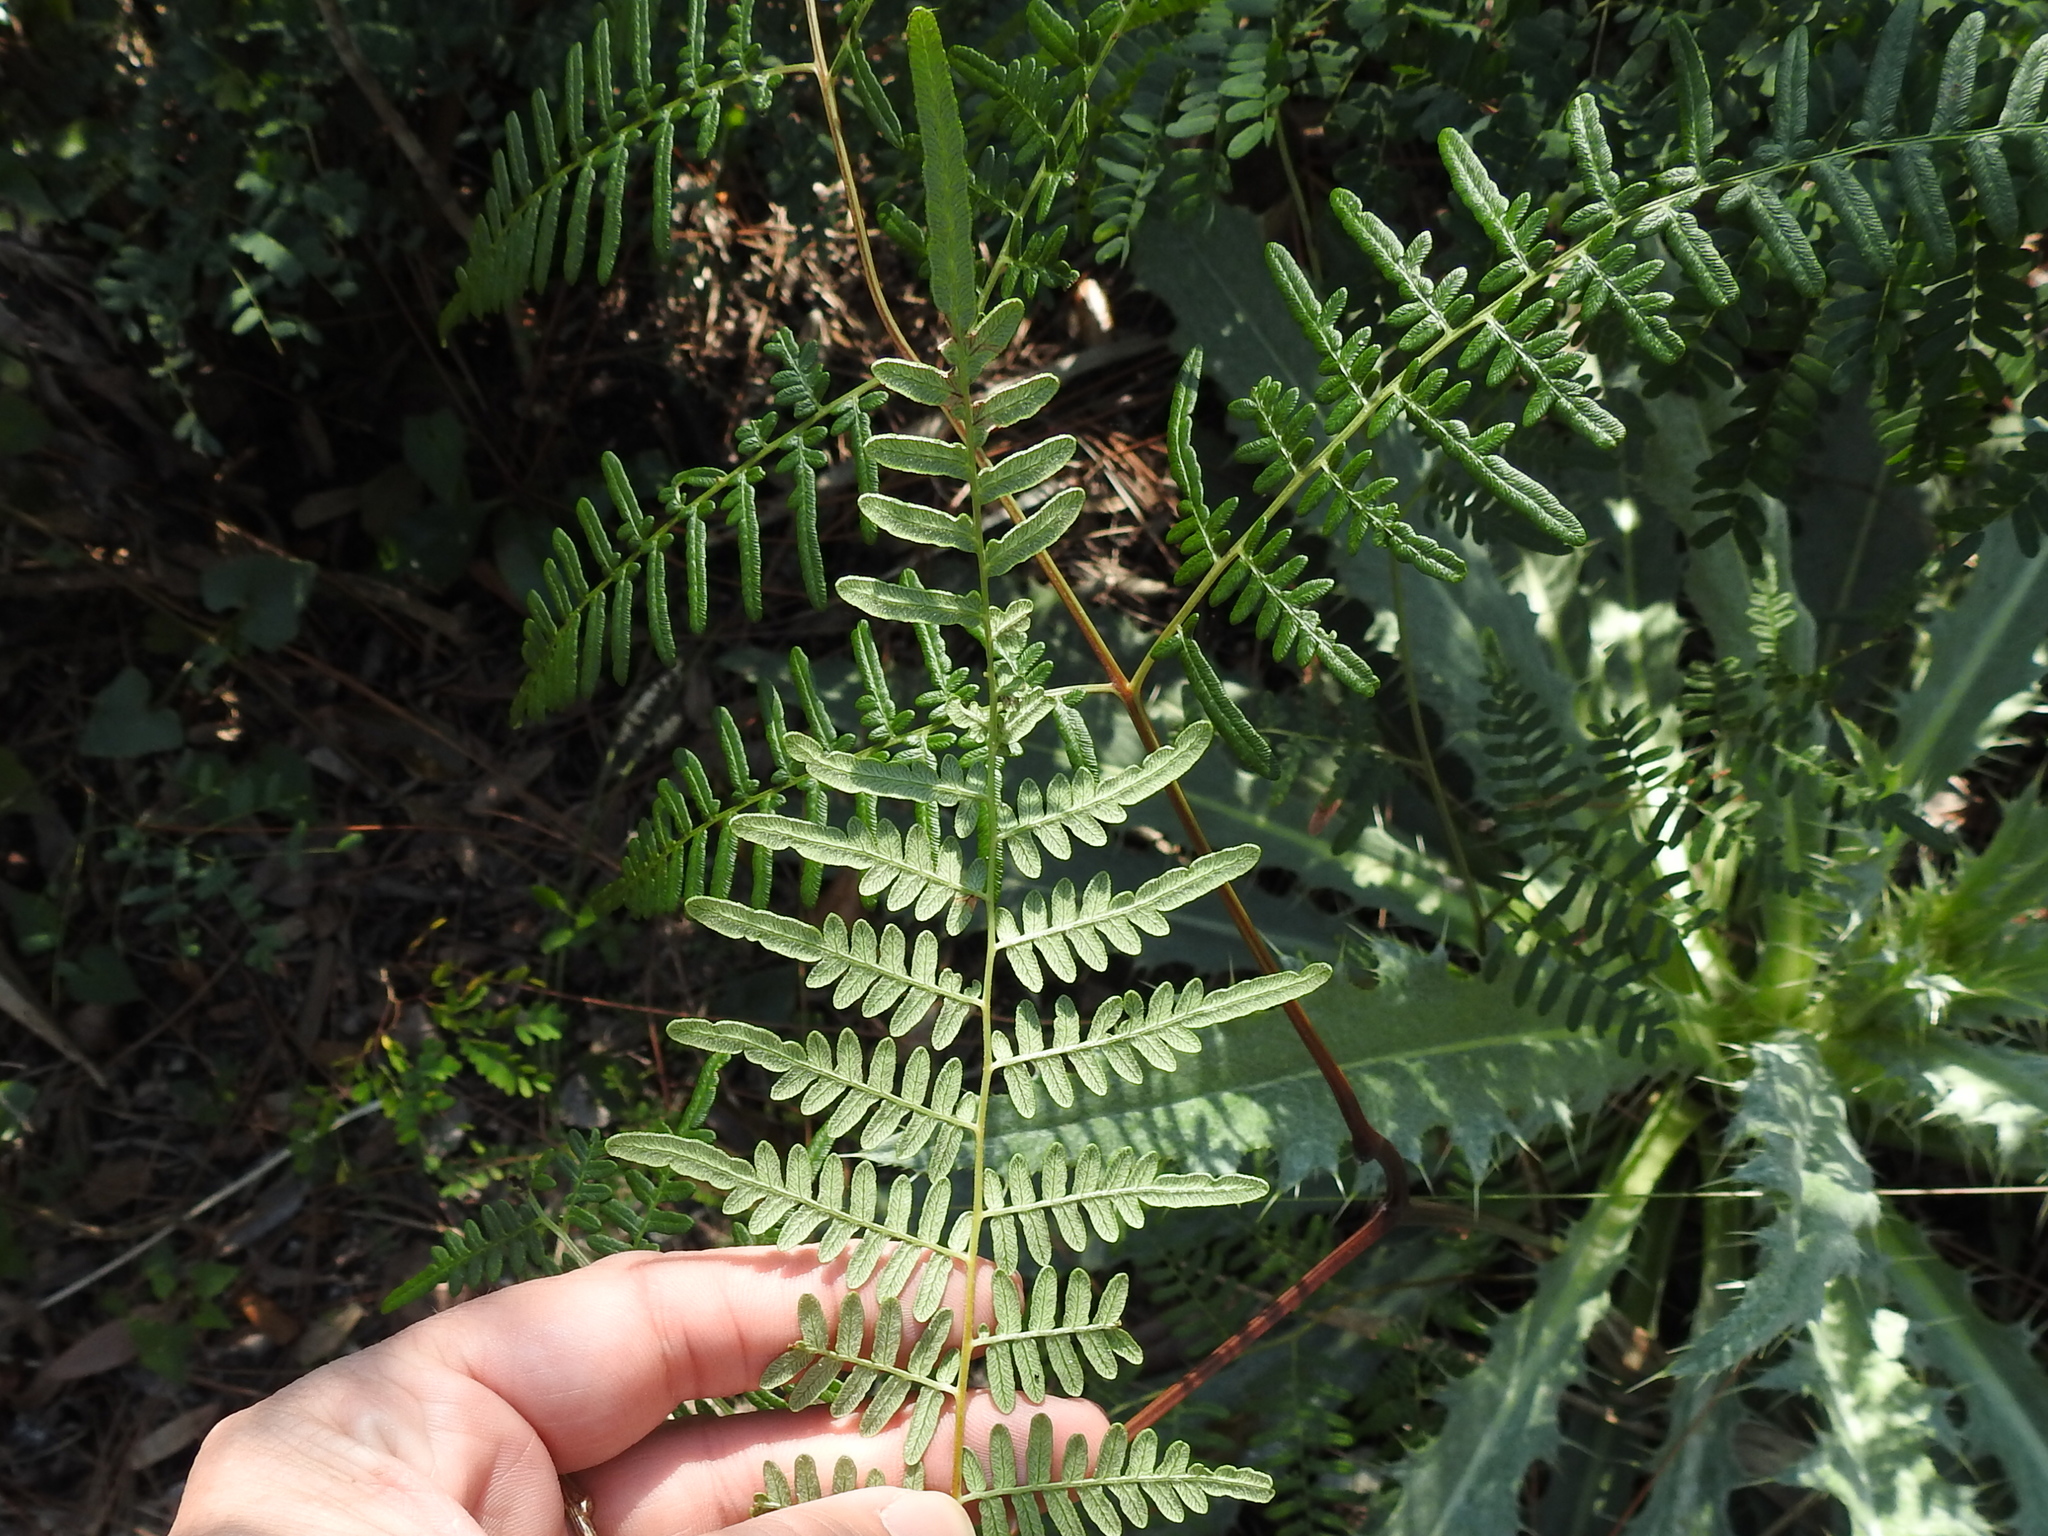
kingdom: Plantae
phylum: Tracheophyta
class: Polypodiopsida
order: Polypodiales
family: Dennstaedtiaceae
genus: Pteridium
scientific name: Pteridium
